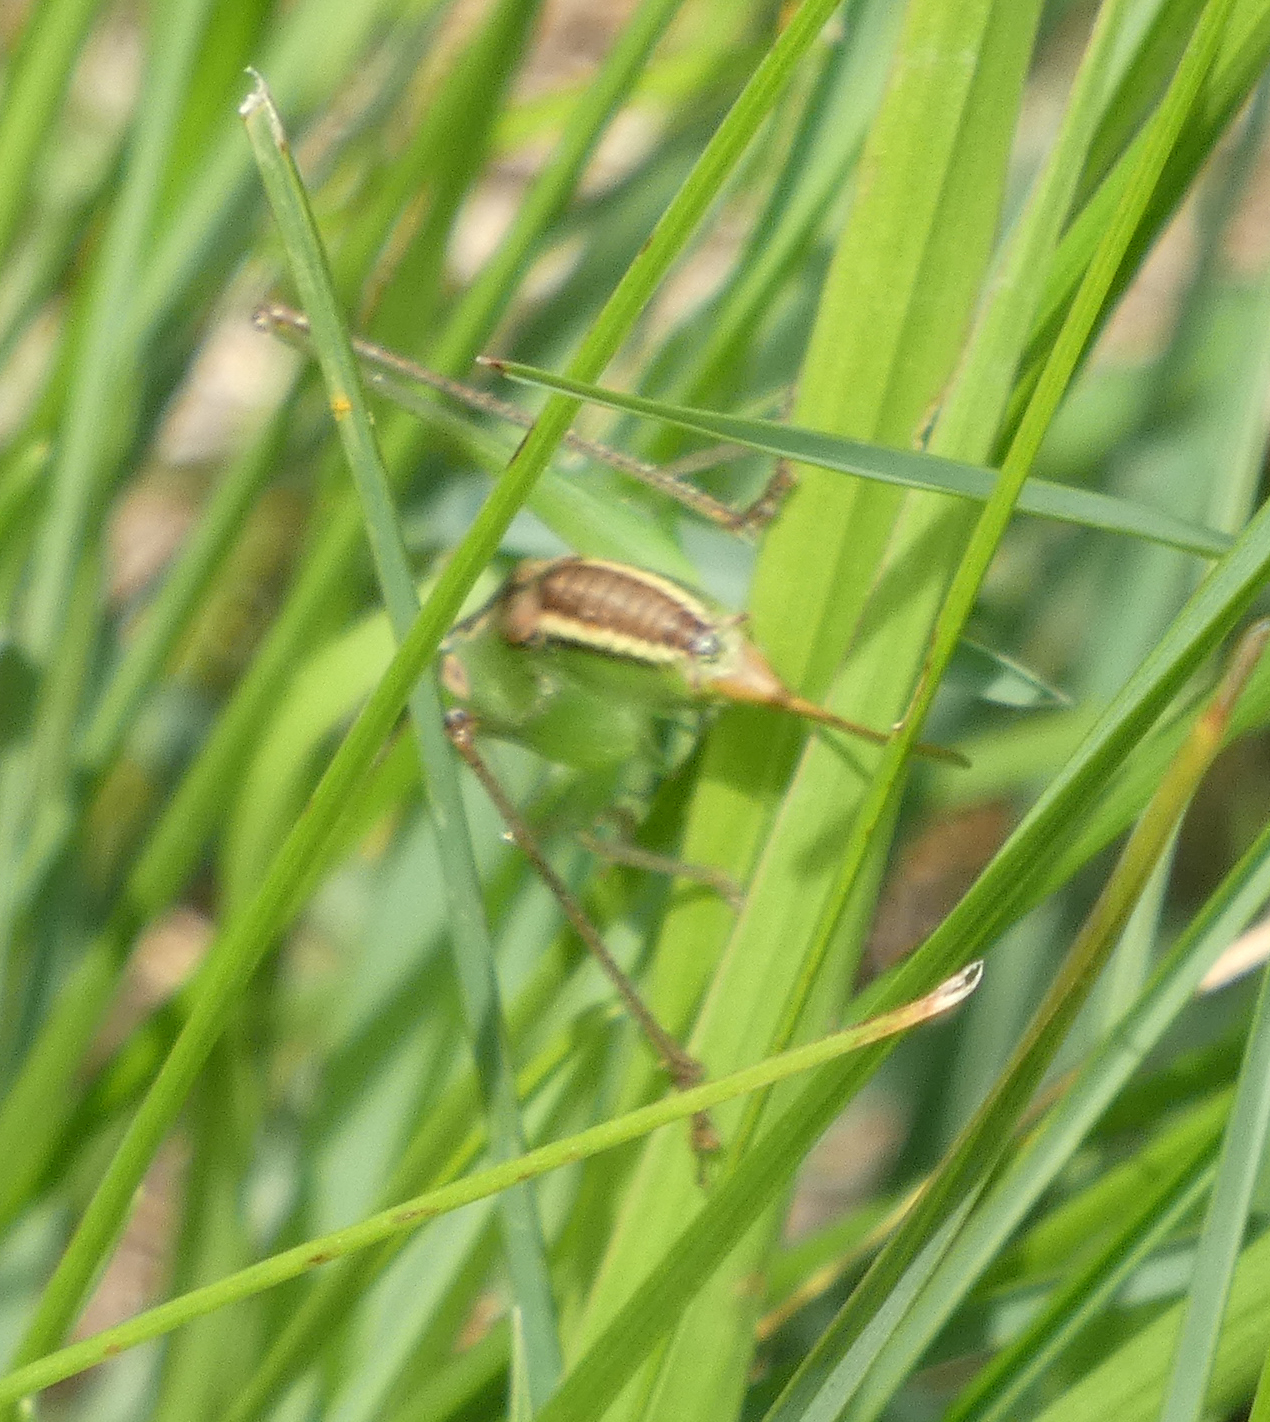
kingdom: Animalia
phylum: Arthropoda
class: Insecta
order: Orthoptera
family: Tettigoniidae
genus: Conocephalus
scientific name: Conocephalus strictus
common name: Straight-lanced katydid
